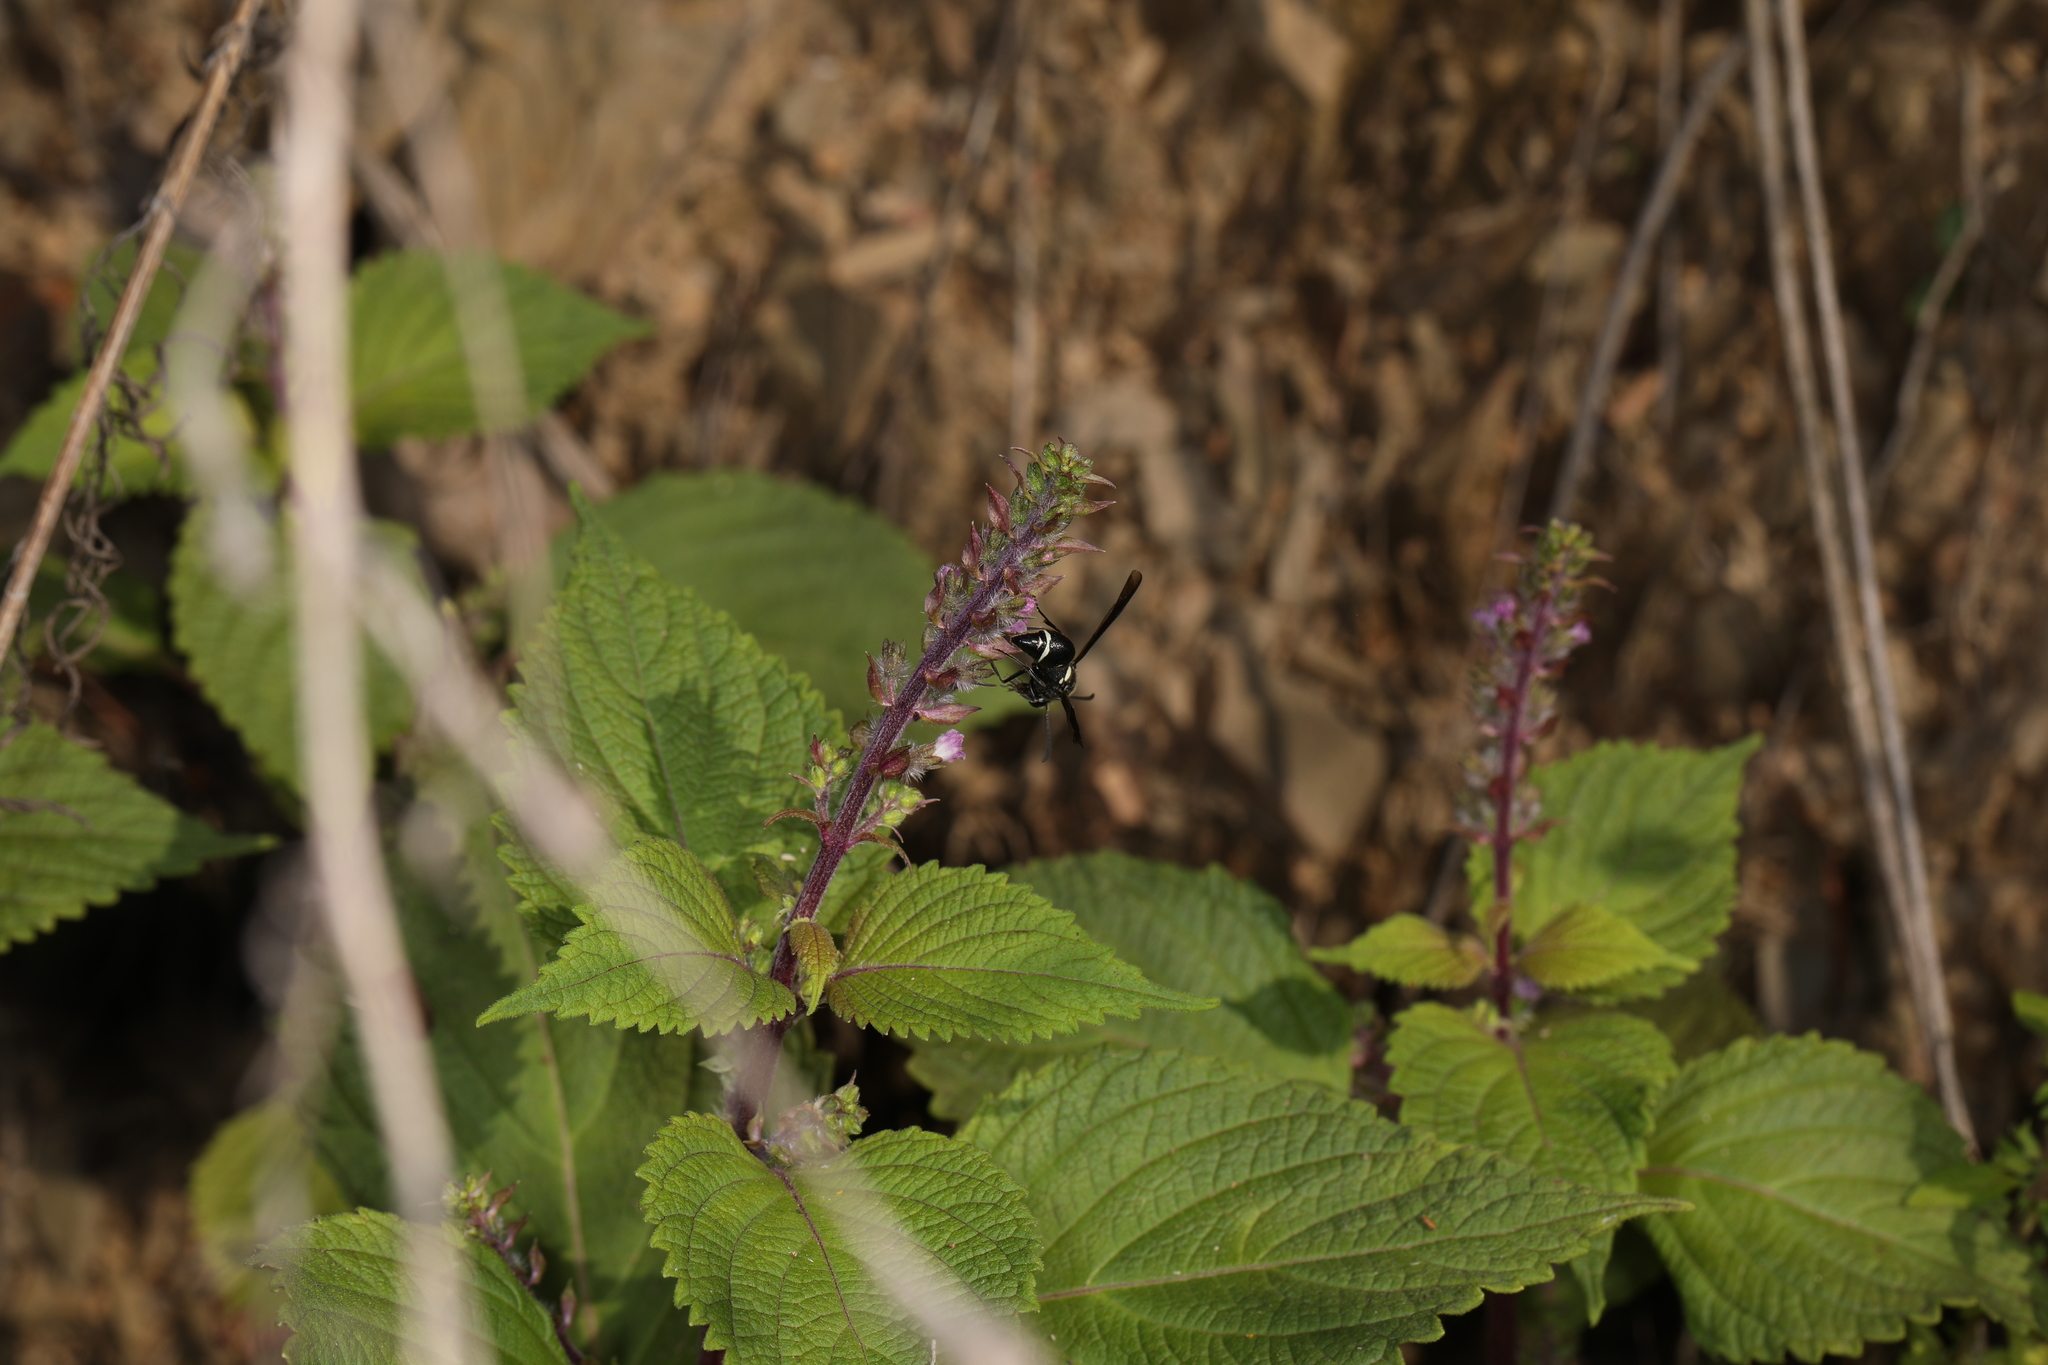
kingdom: Plantae
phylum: Tracheophyta
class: Magnoliopsida
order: Lamiales
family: Lamiaceae
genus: Perilla
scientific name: Perilla frutescens
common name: Perilla
